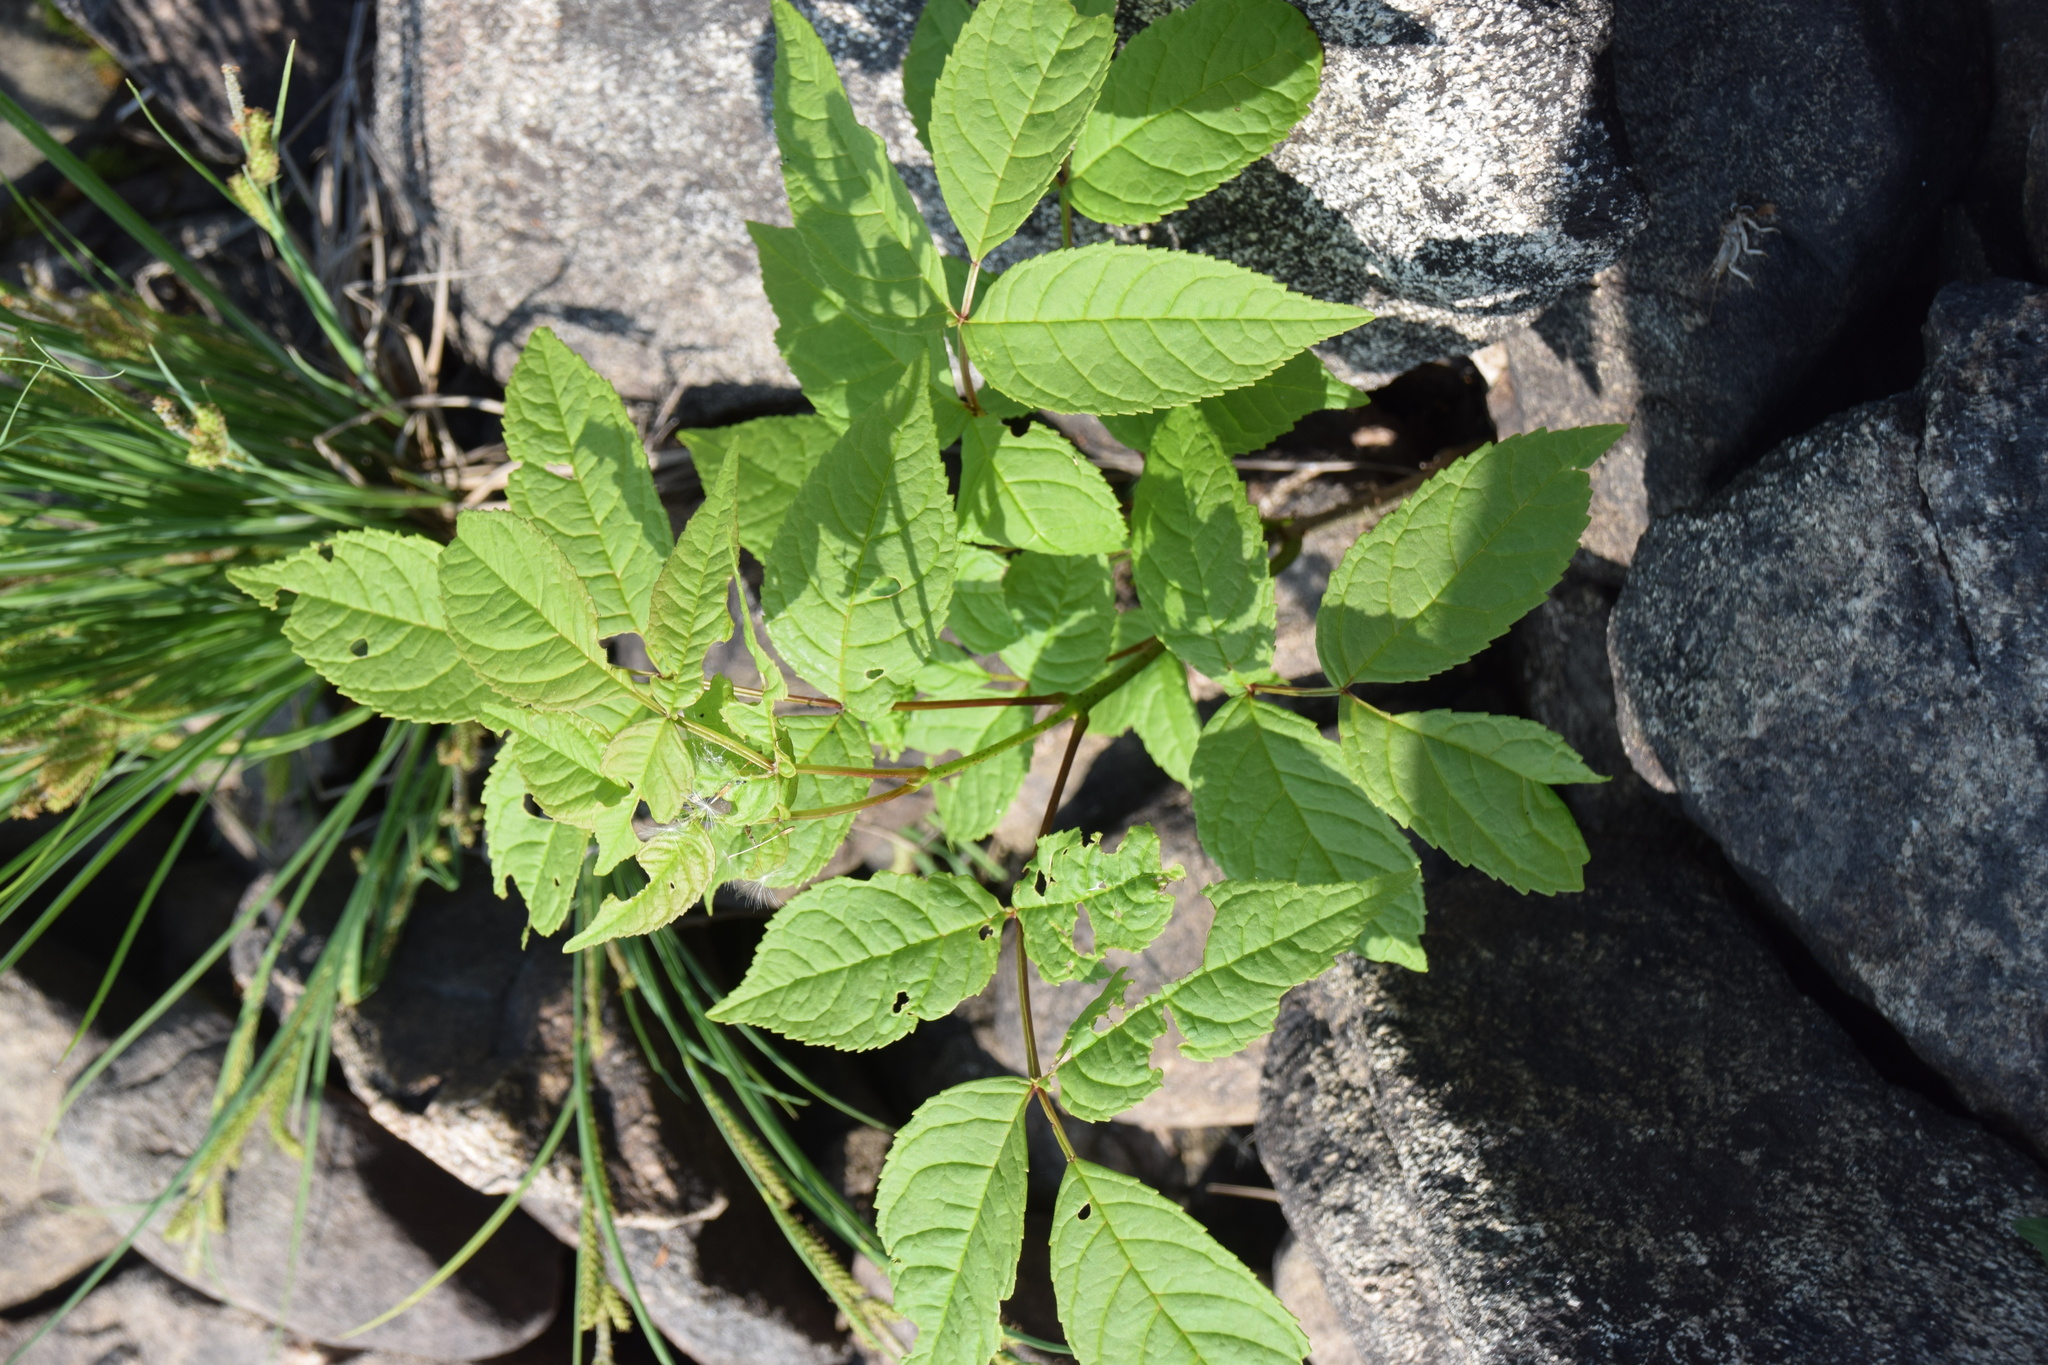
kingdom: Plantae
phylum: Tracheophyta
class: Magnoliopsida
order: Lamiales
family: Oleaceae
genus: Fraxinus
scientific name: Fraxinus nigra
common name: Black ash
